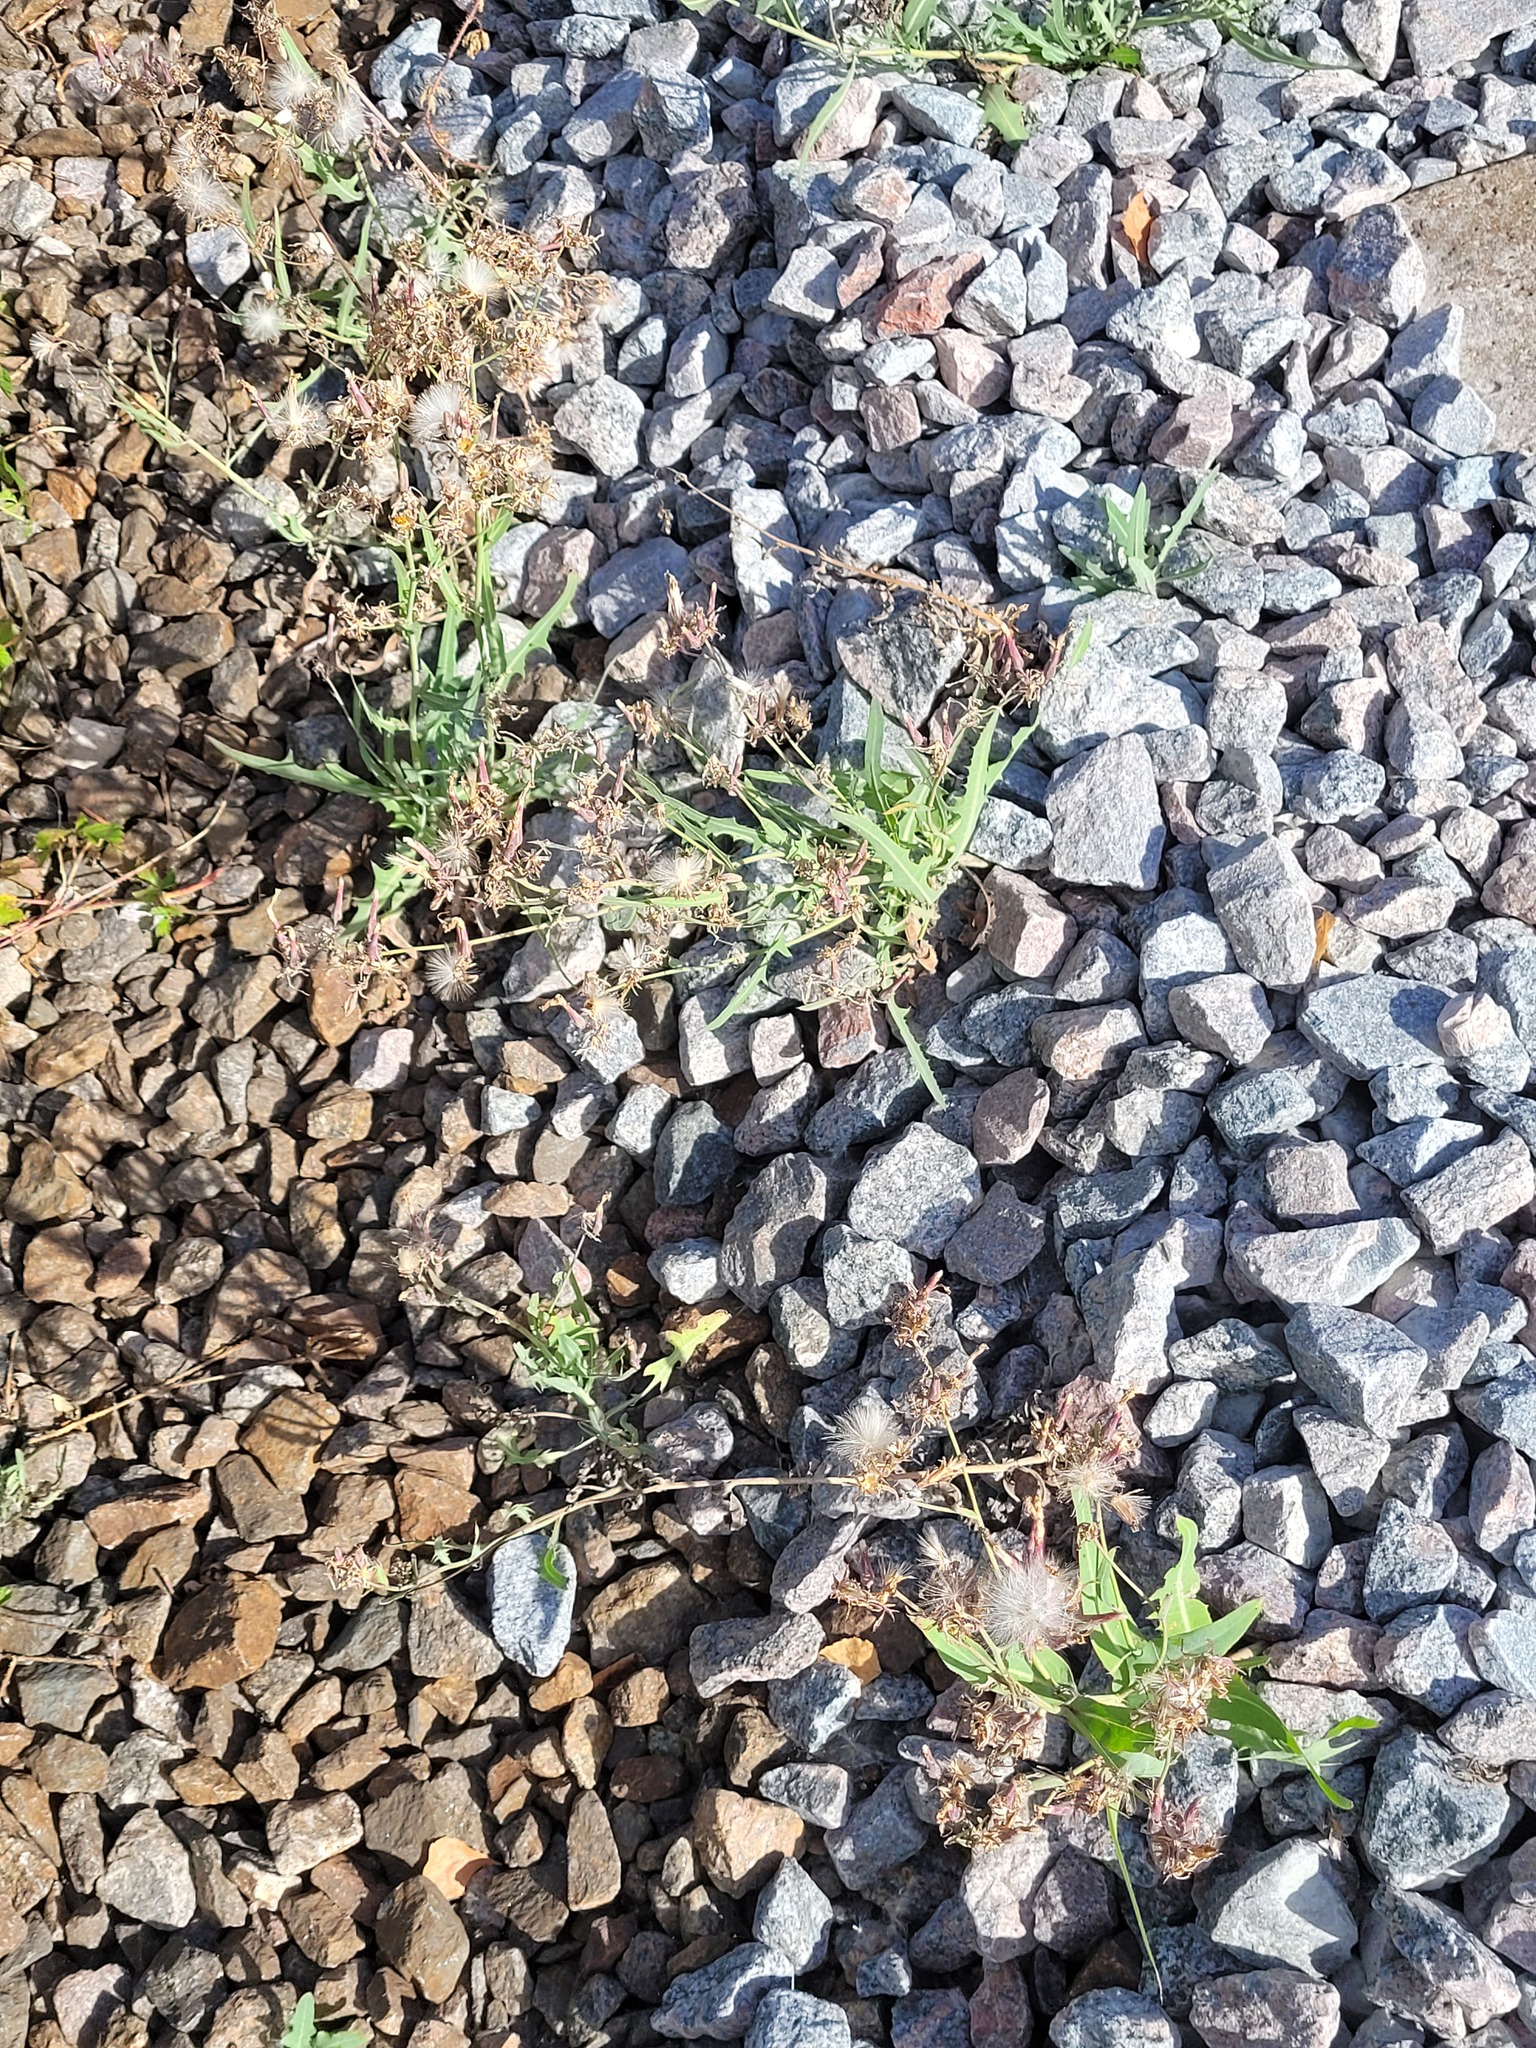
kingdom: Plantae
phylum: Tracheophyta
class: Magnoliopsida
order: Asterales
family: Asteraceae
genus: Lactuca
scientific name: Lactuca tatarica
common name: Blue lettuce
